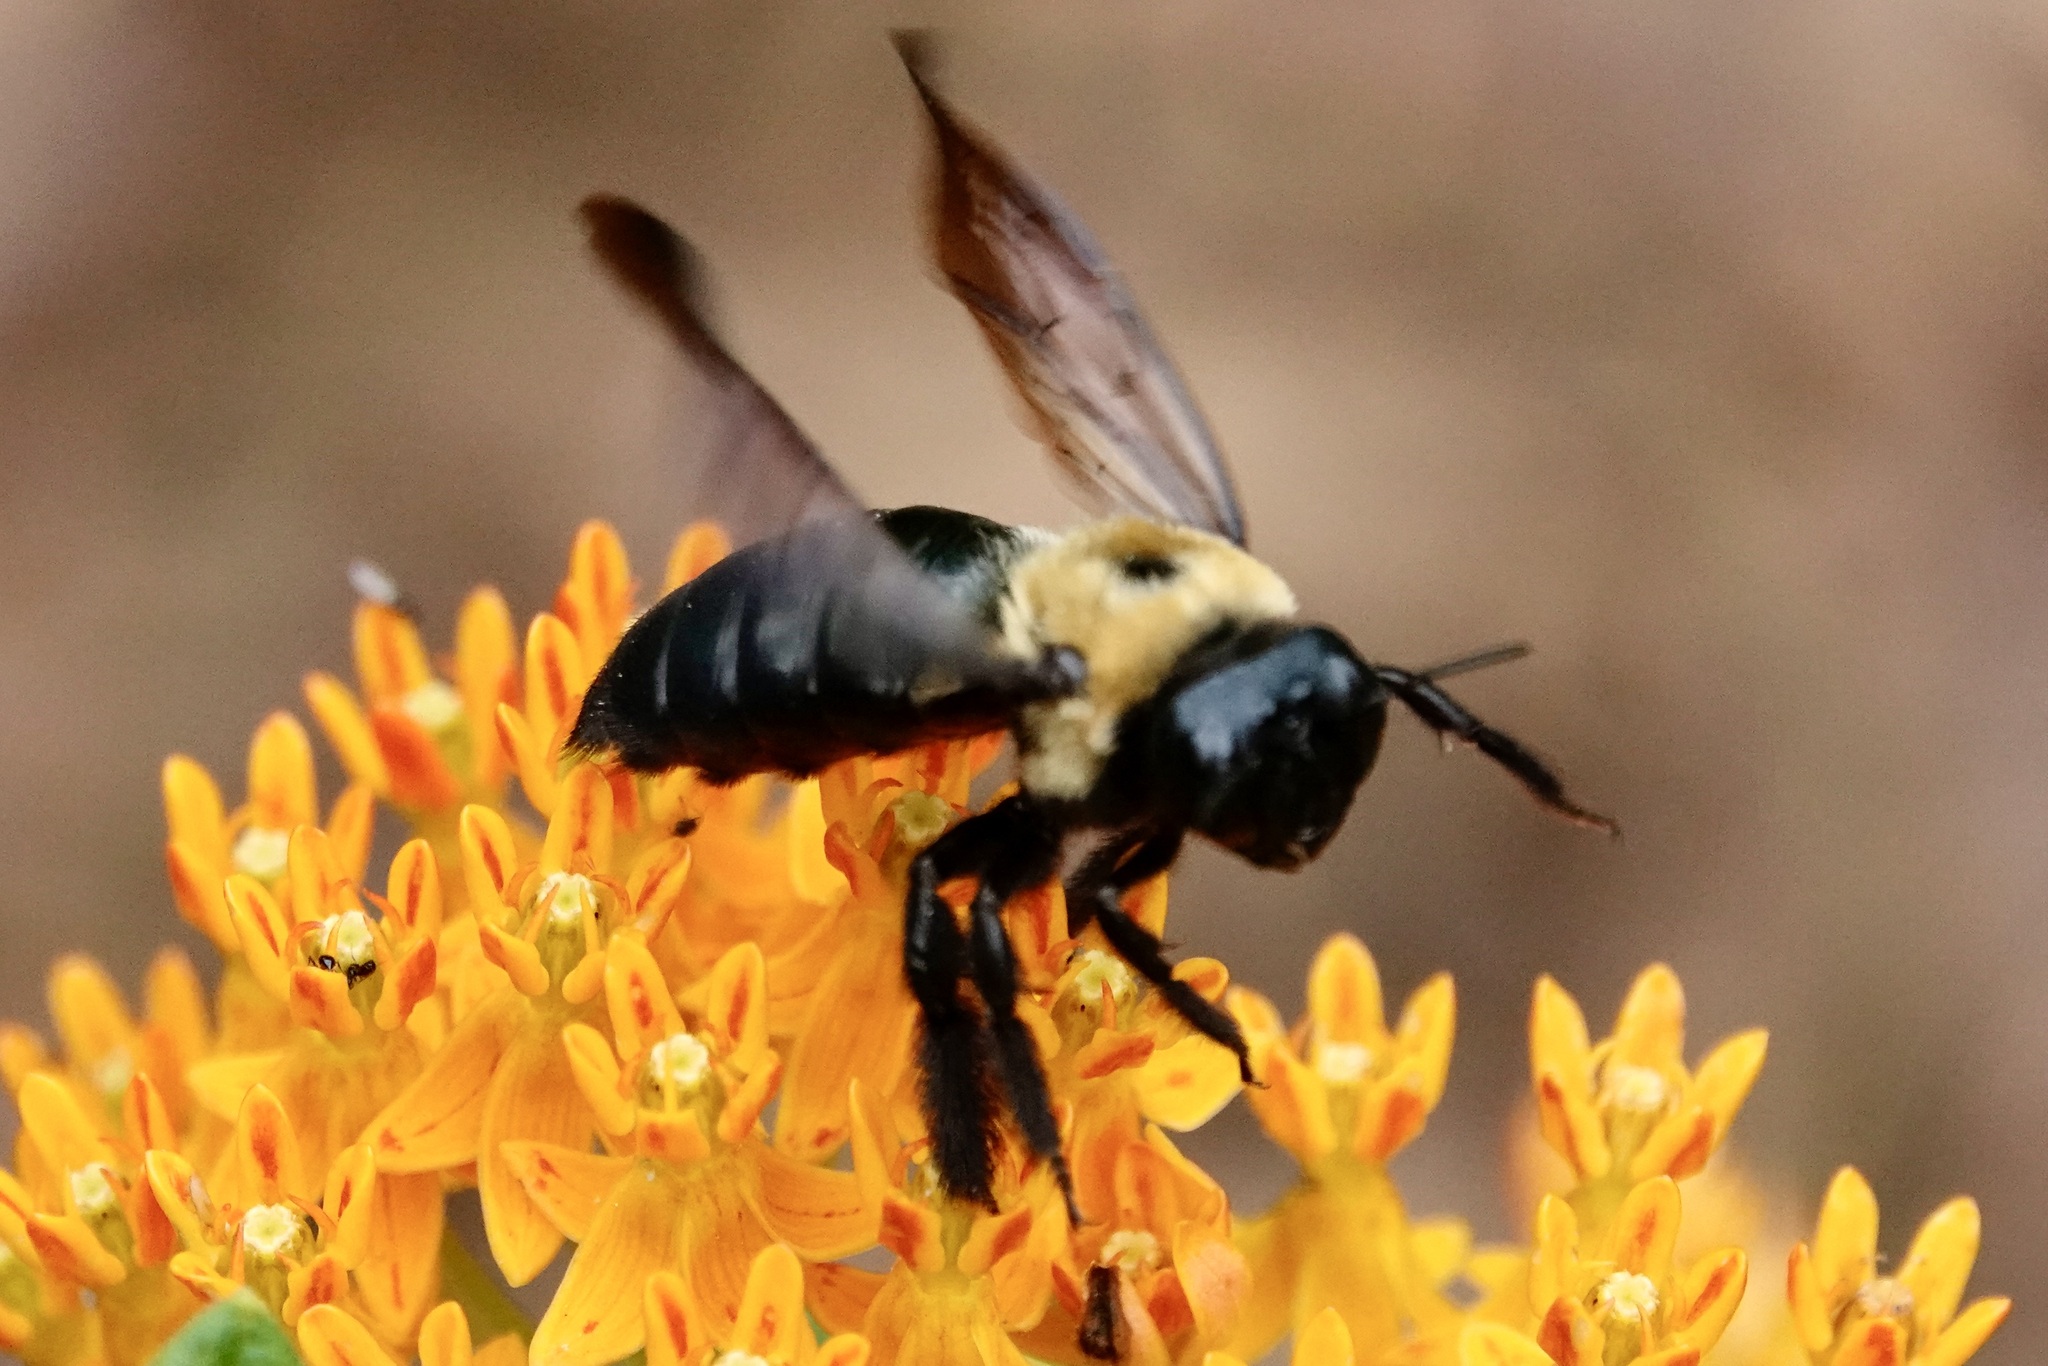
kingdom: Animalia
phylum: Arthropoda
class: Insecta
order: Hymenoptera
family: Apidae
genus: Xylocopa
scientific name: Xylocopa virginica
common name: Carpenter bee
